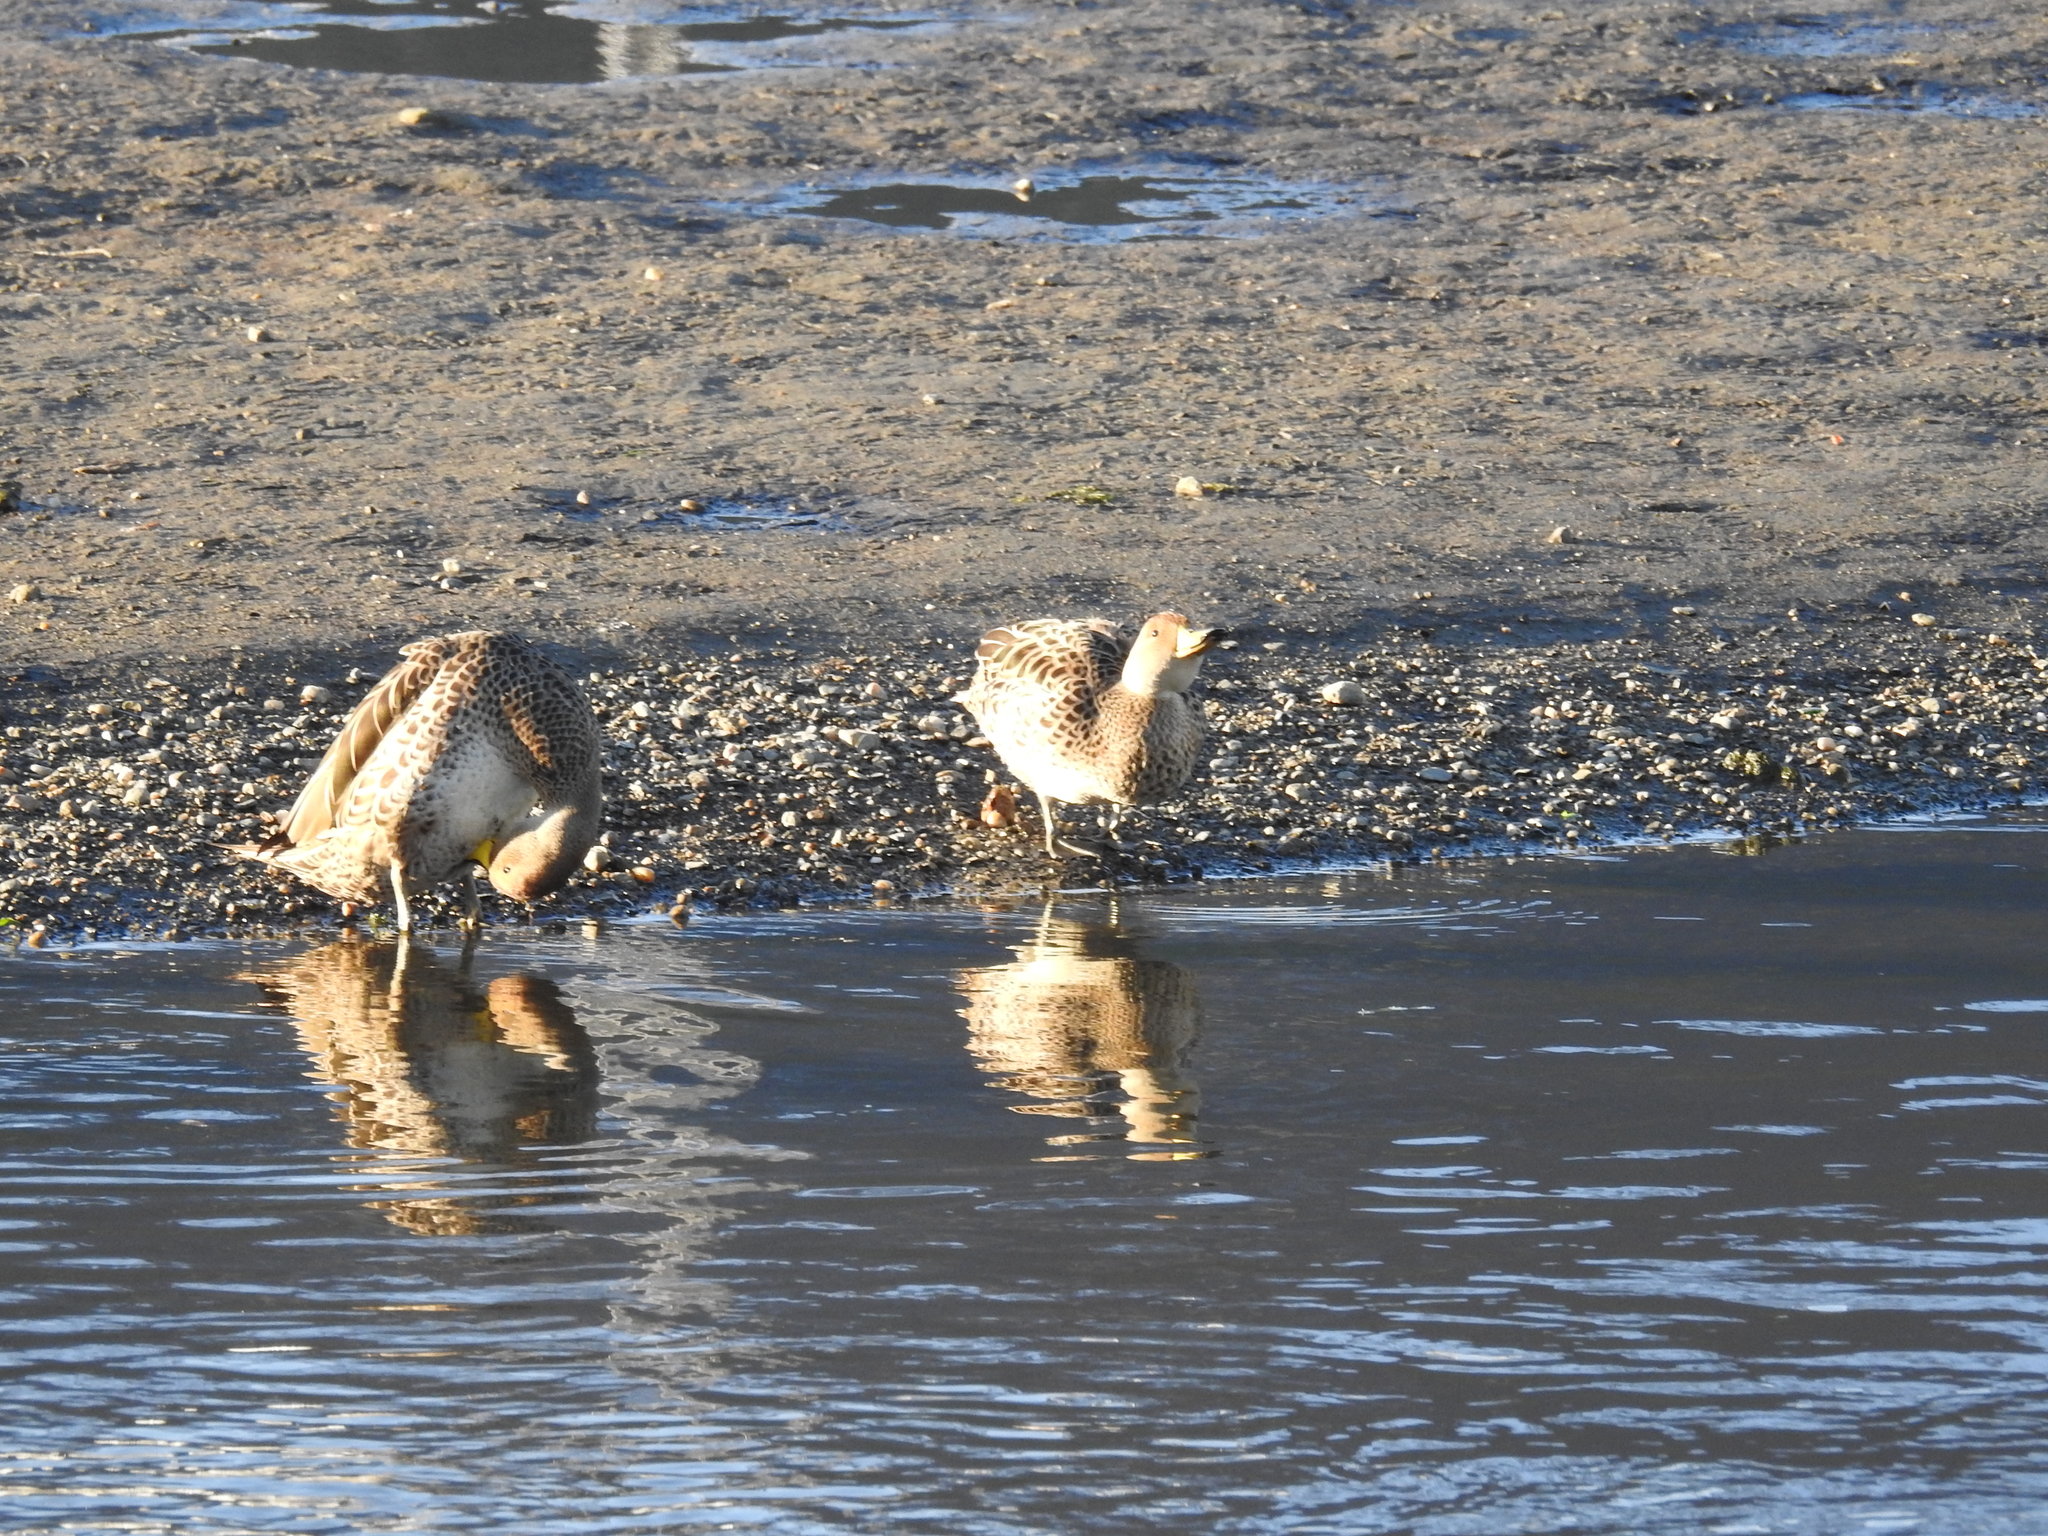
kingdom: Animalia
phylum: Chordata
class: Aves
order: Anseriformes
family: Anatidae
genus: Anas
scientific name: Anas georgica
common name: Yellow-billed pintail
